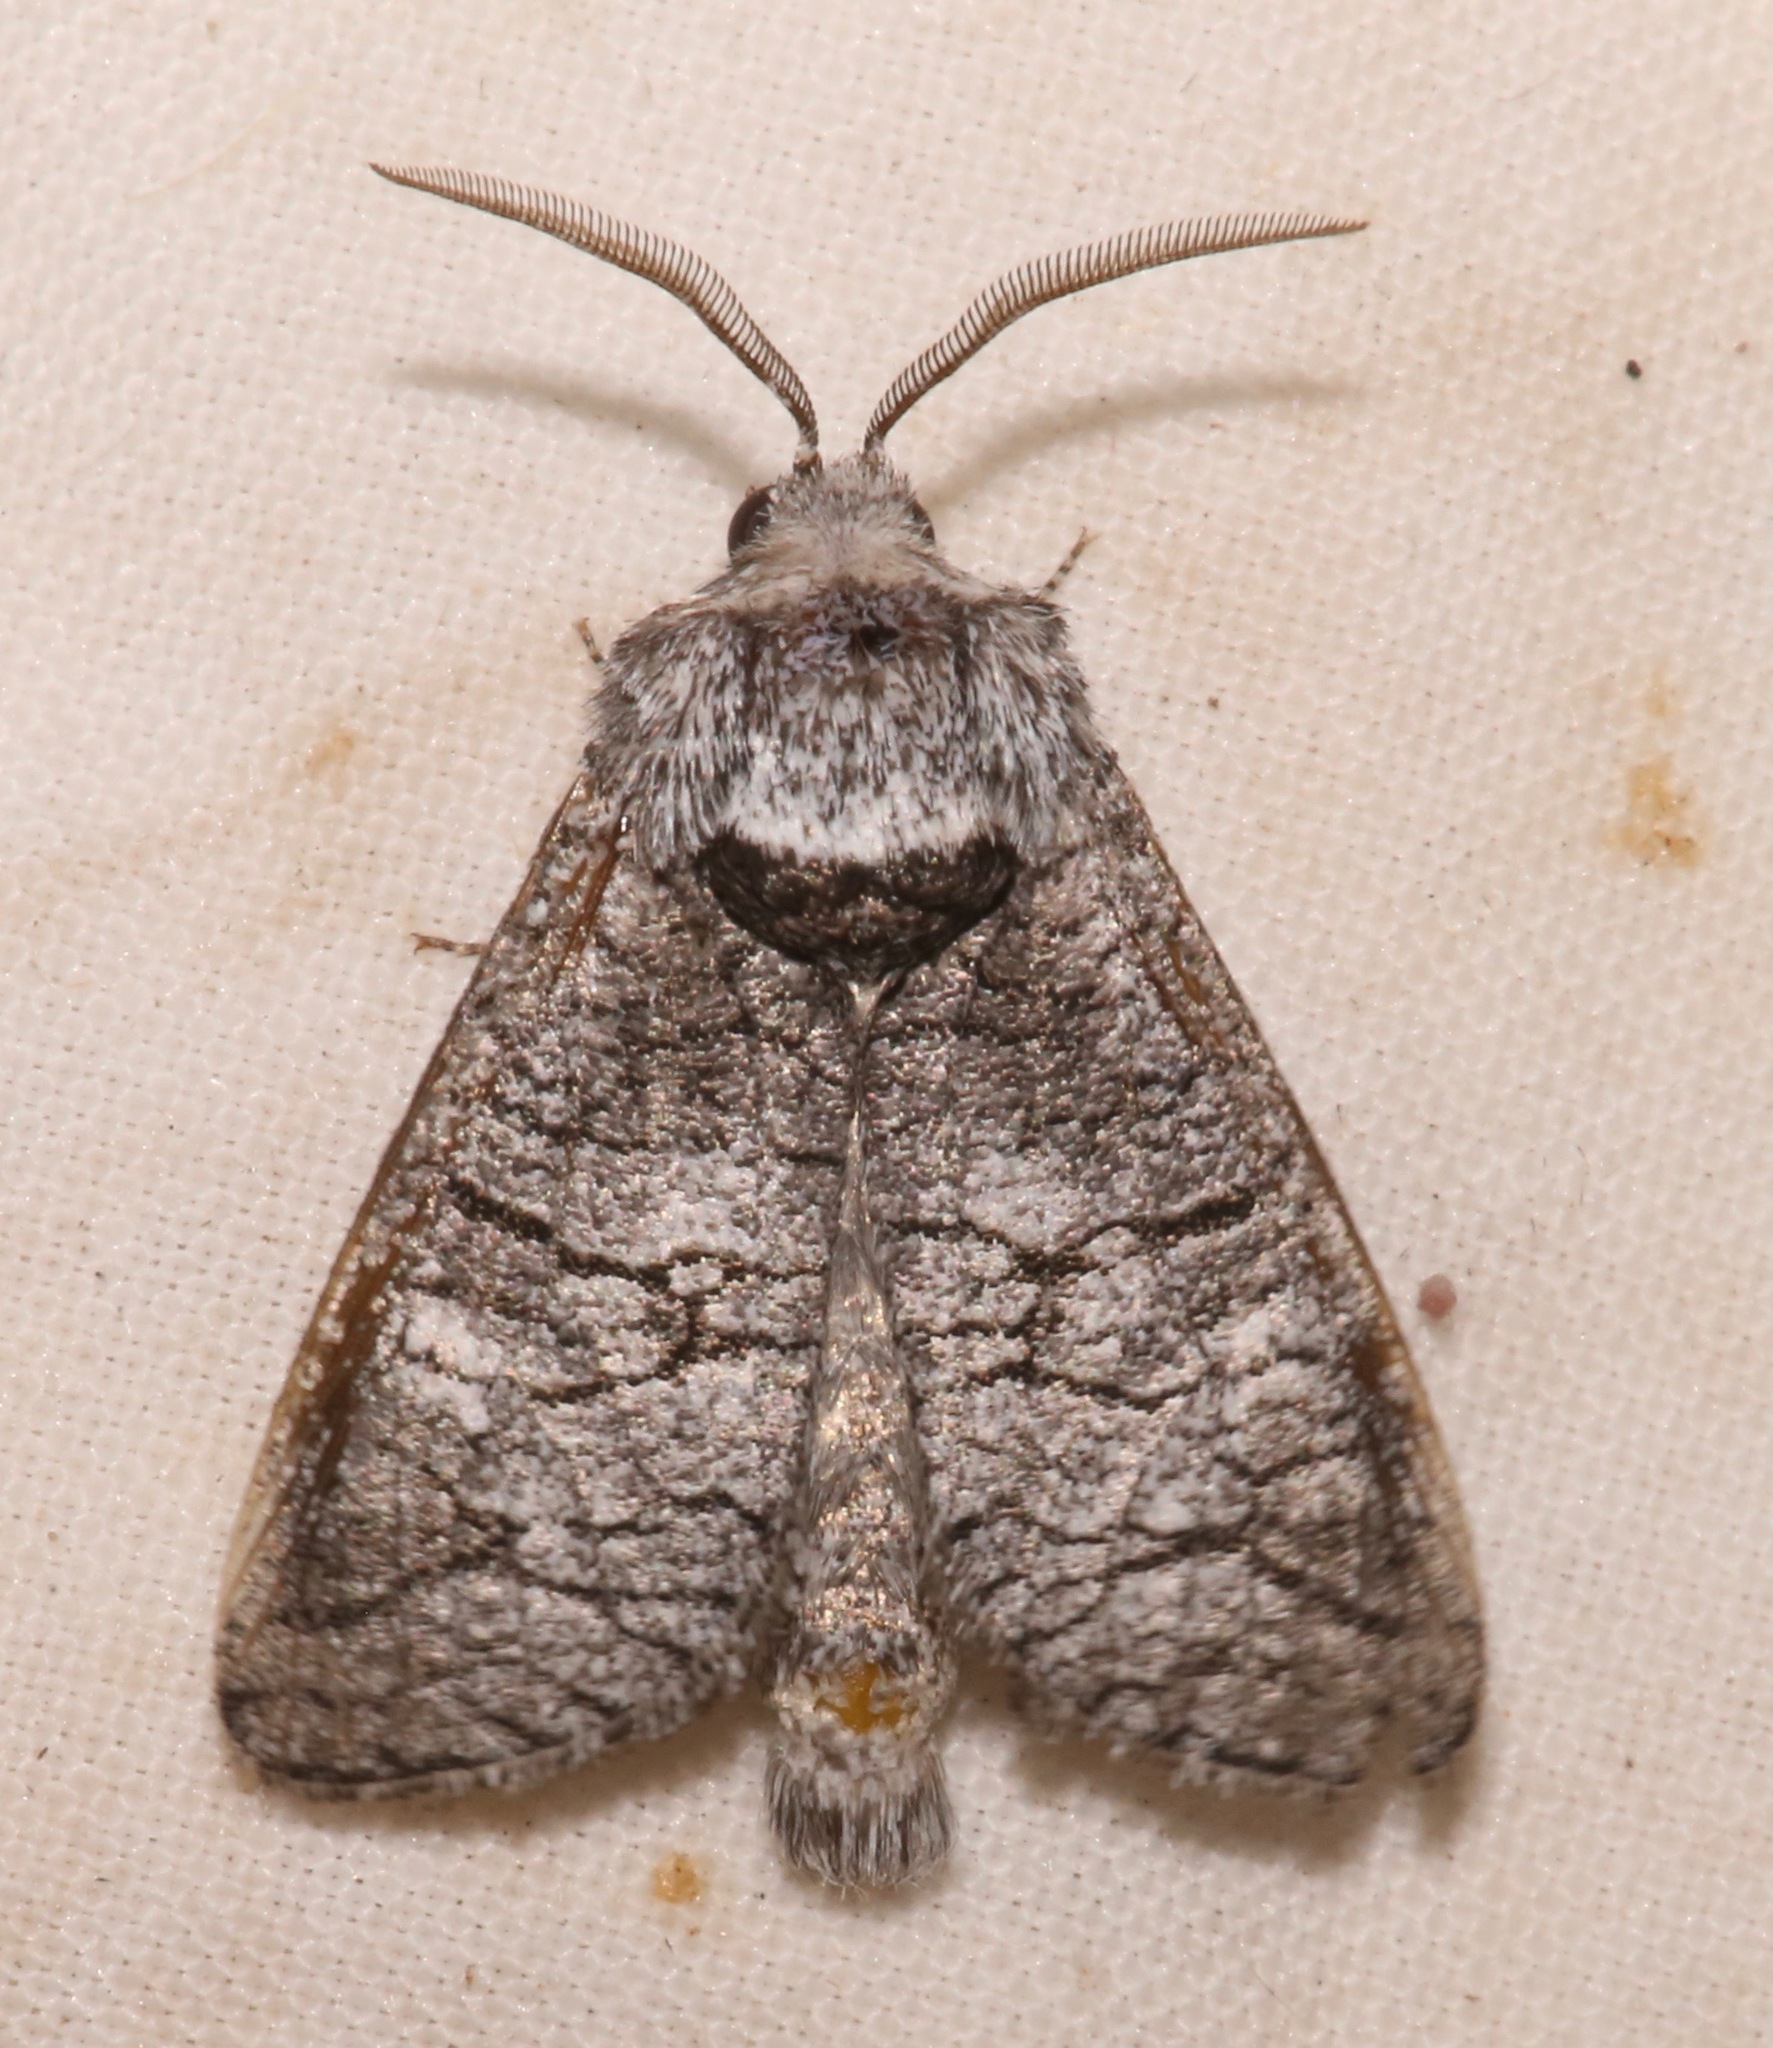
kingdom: Animalia
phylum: Arthropoda
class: Insecta
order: Lepidoptera
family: Cossidae
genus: Fania
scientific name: Fania nanus
